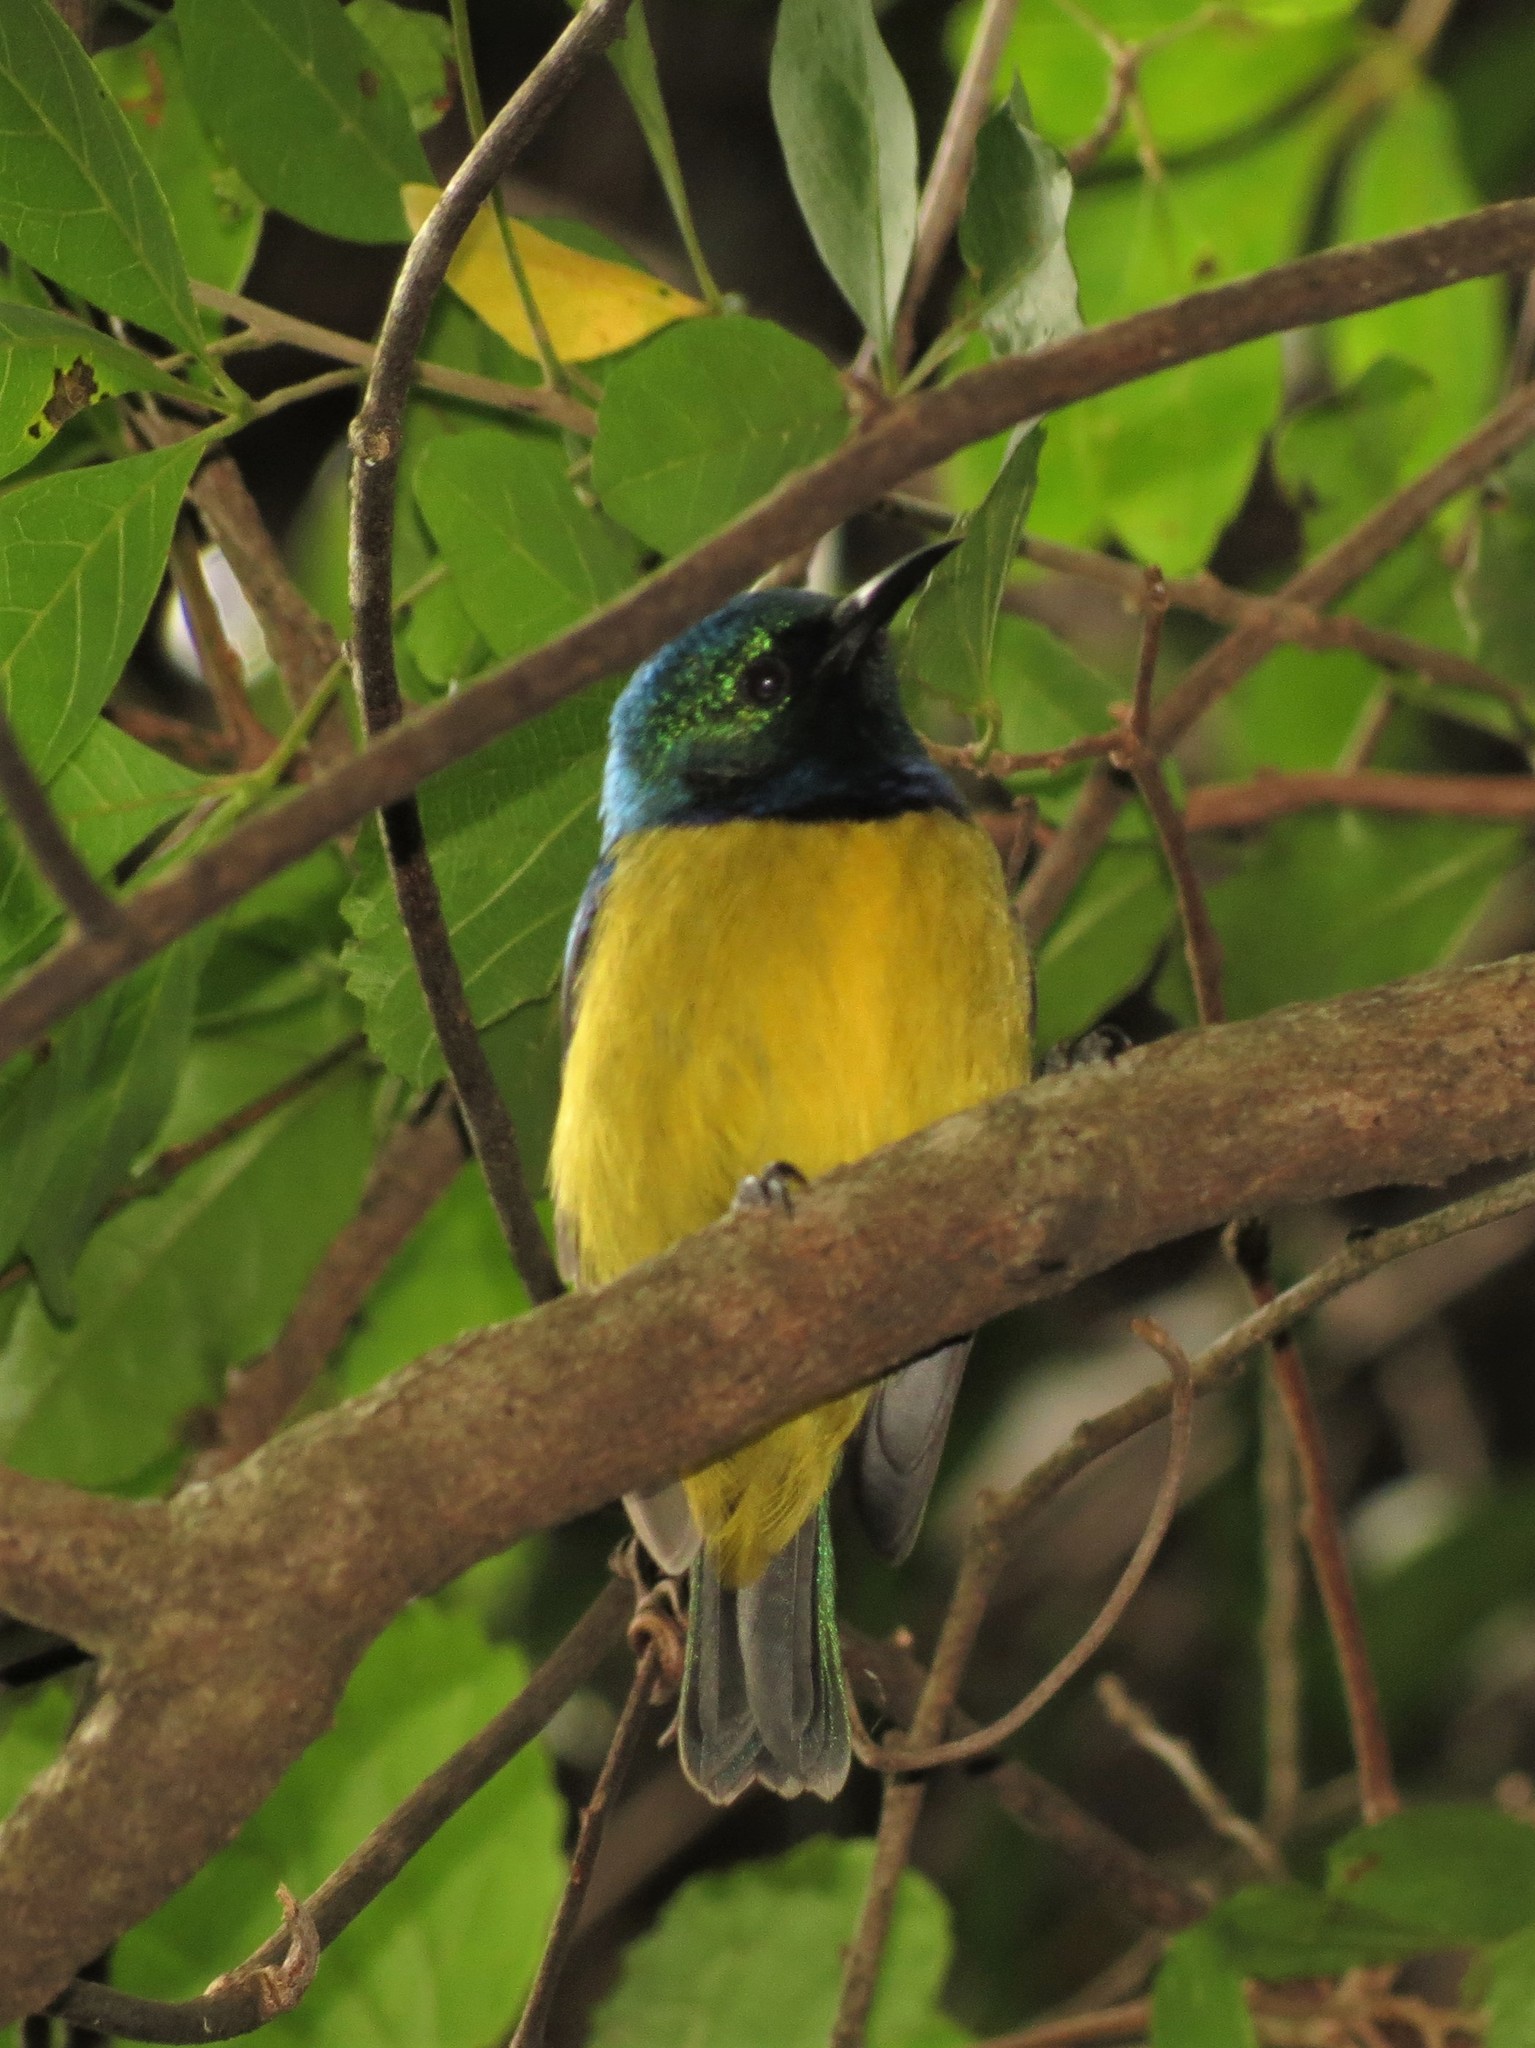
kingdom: Animalia
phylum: Chordata
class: Aves
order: Passeriformes
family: Nectariniidae
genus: Hedydipna
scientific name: Hedydipna collaris
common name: Collared sunbird
